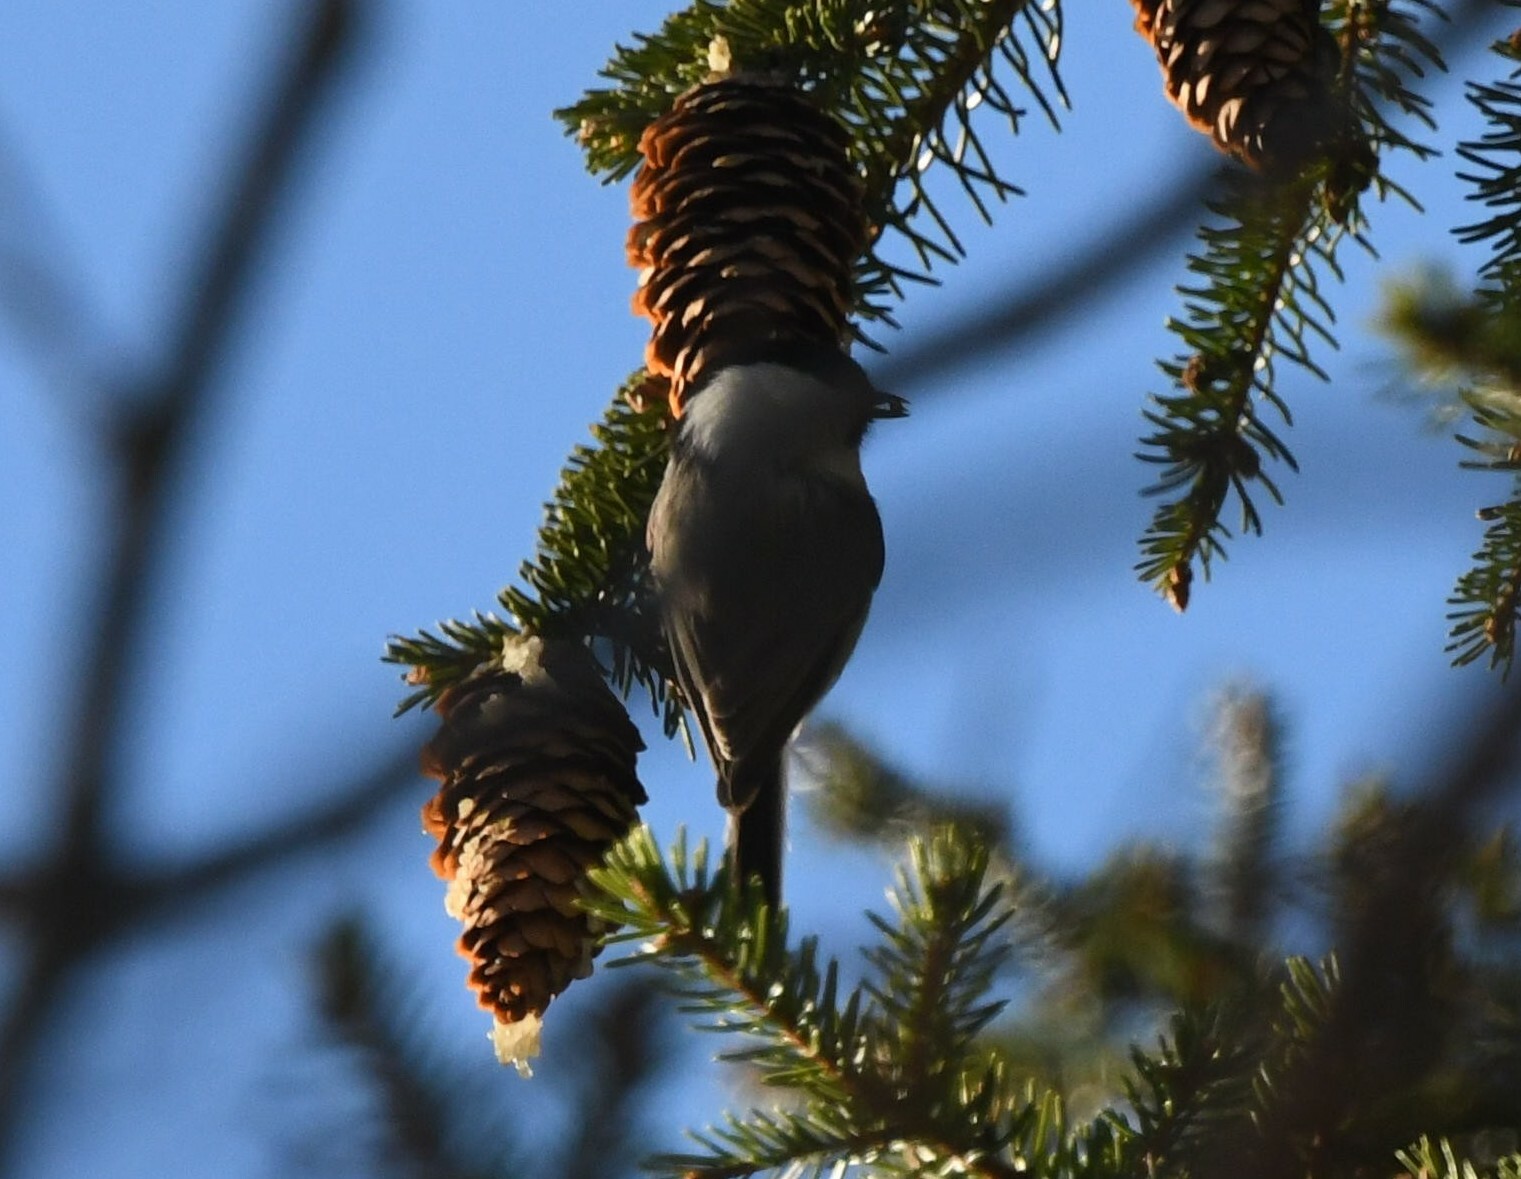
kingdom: Animalia
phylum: Chordata
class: Aves
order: Passeriformes
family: Paridae
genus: Poecile
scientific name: Poecile montanus
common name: Willow tit
